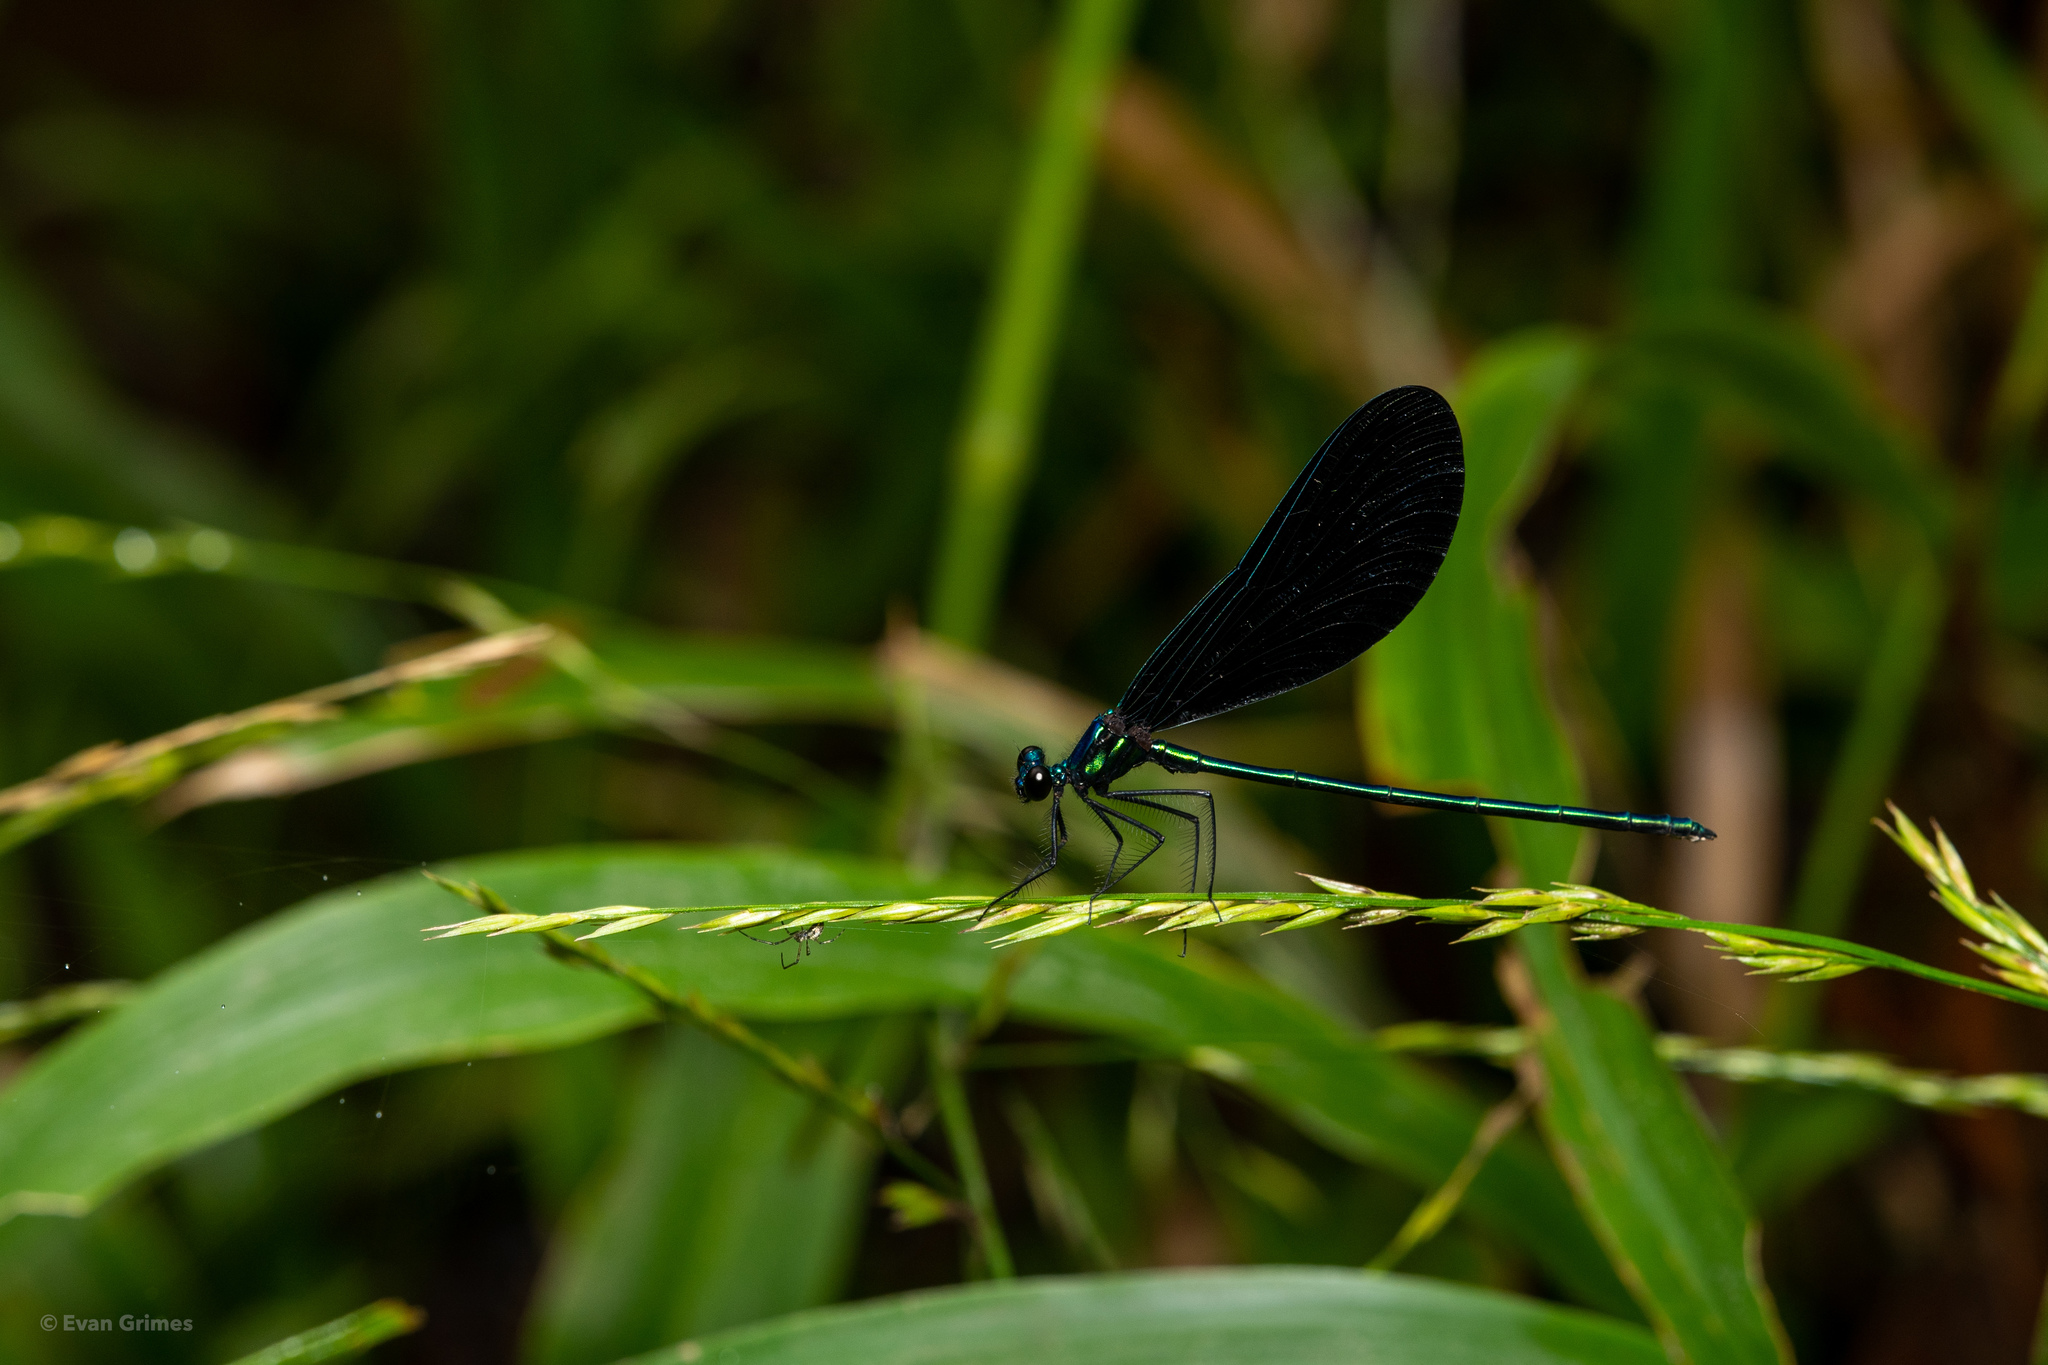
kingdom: Animalia
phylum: Arthropoda
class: Insecta
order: Odonata
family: Calopterygidae
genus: Calopteryx
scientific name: Calopteryx maculata
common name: Ebony jewelwing
